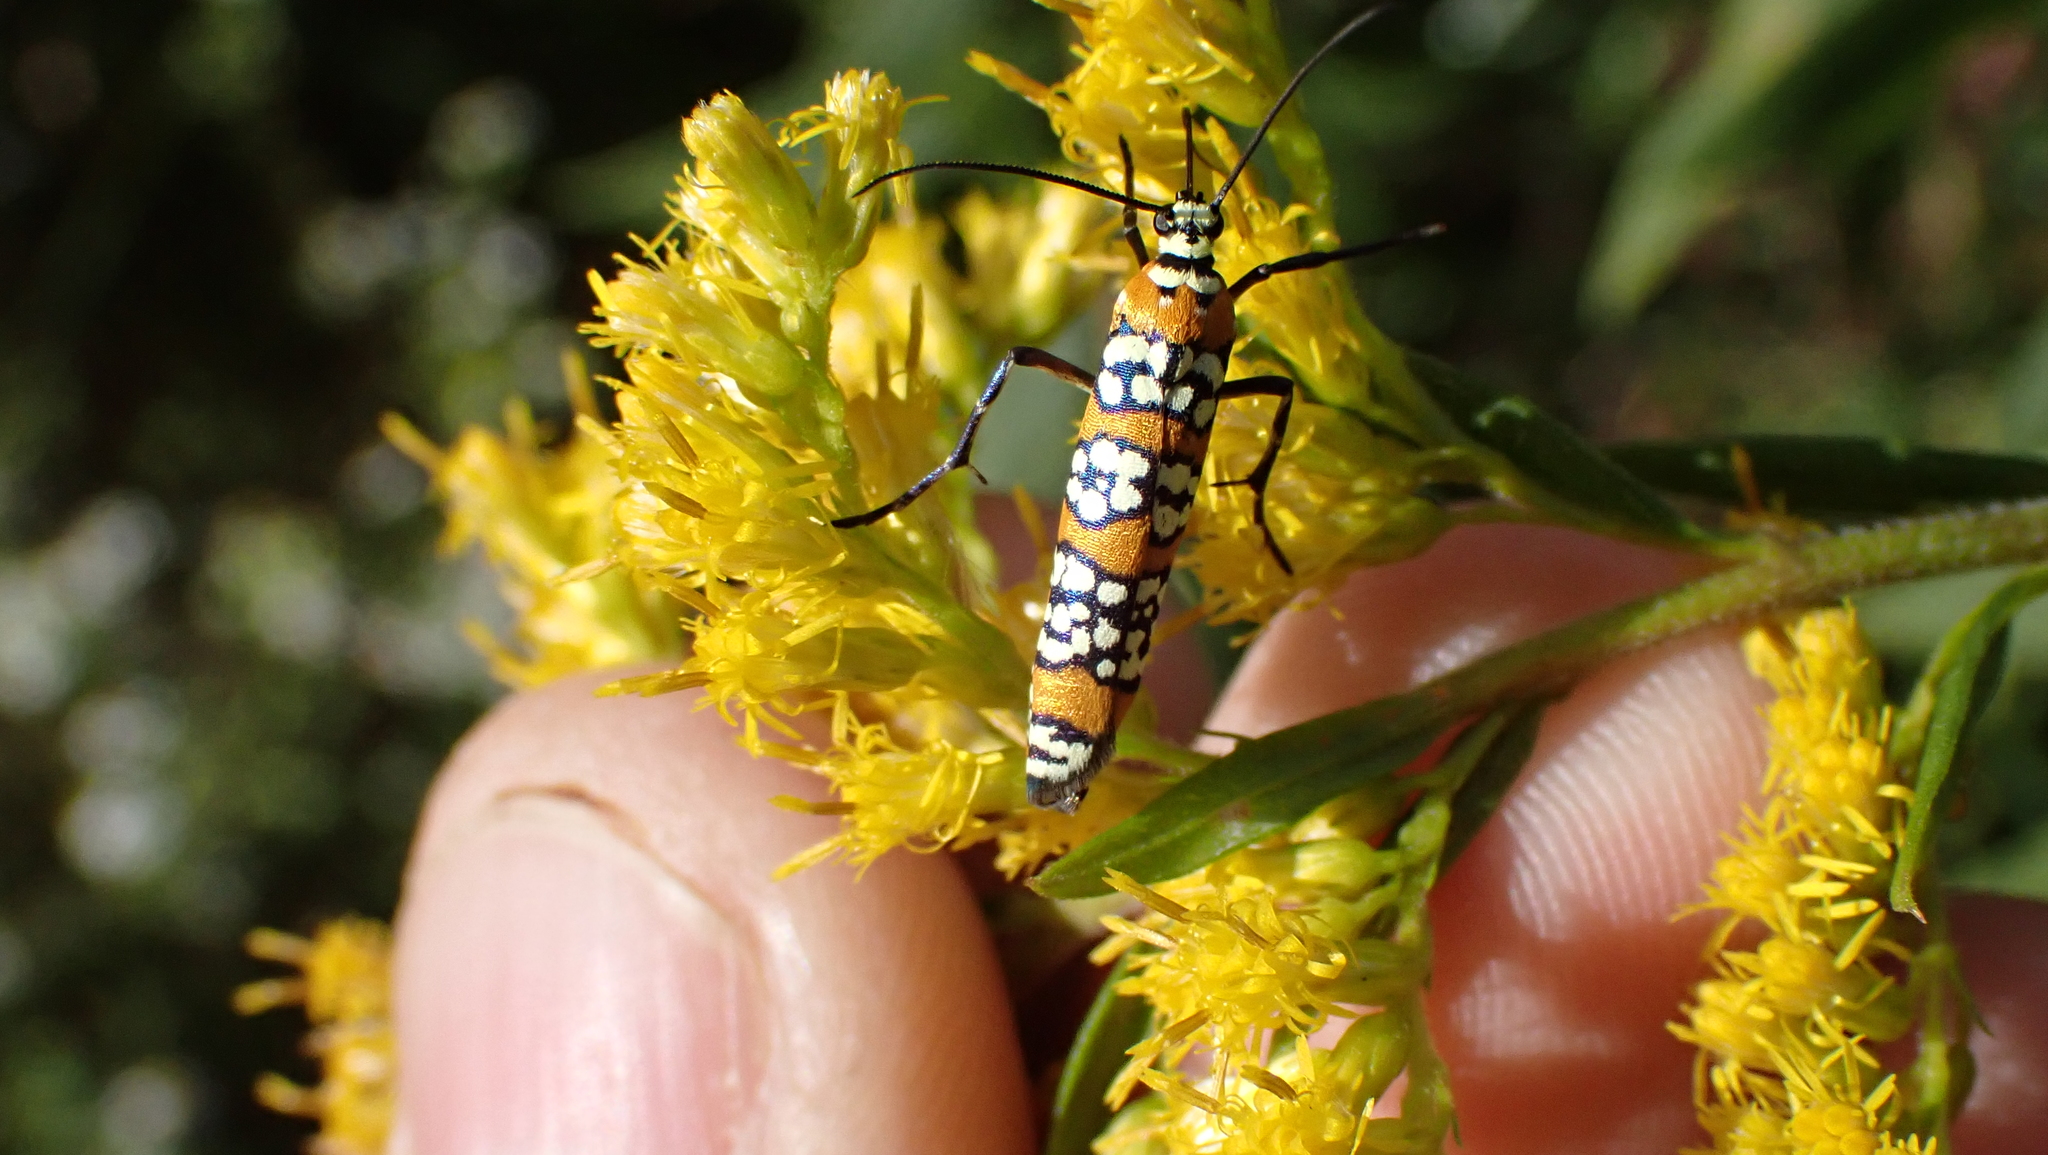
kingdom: Animalia
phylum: Arthropoda
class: Insecta
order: Lepidoptera
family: Attevidae
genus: Atteva
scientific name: Atteva punctella
